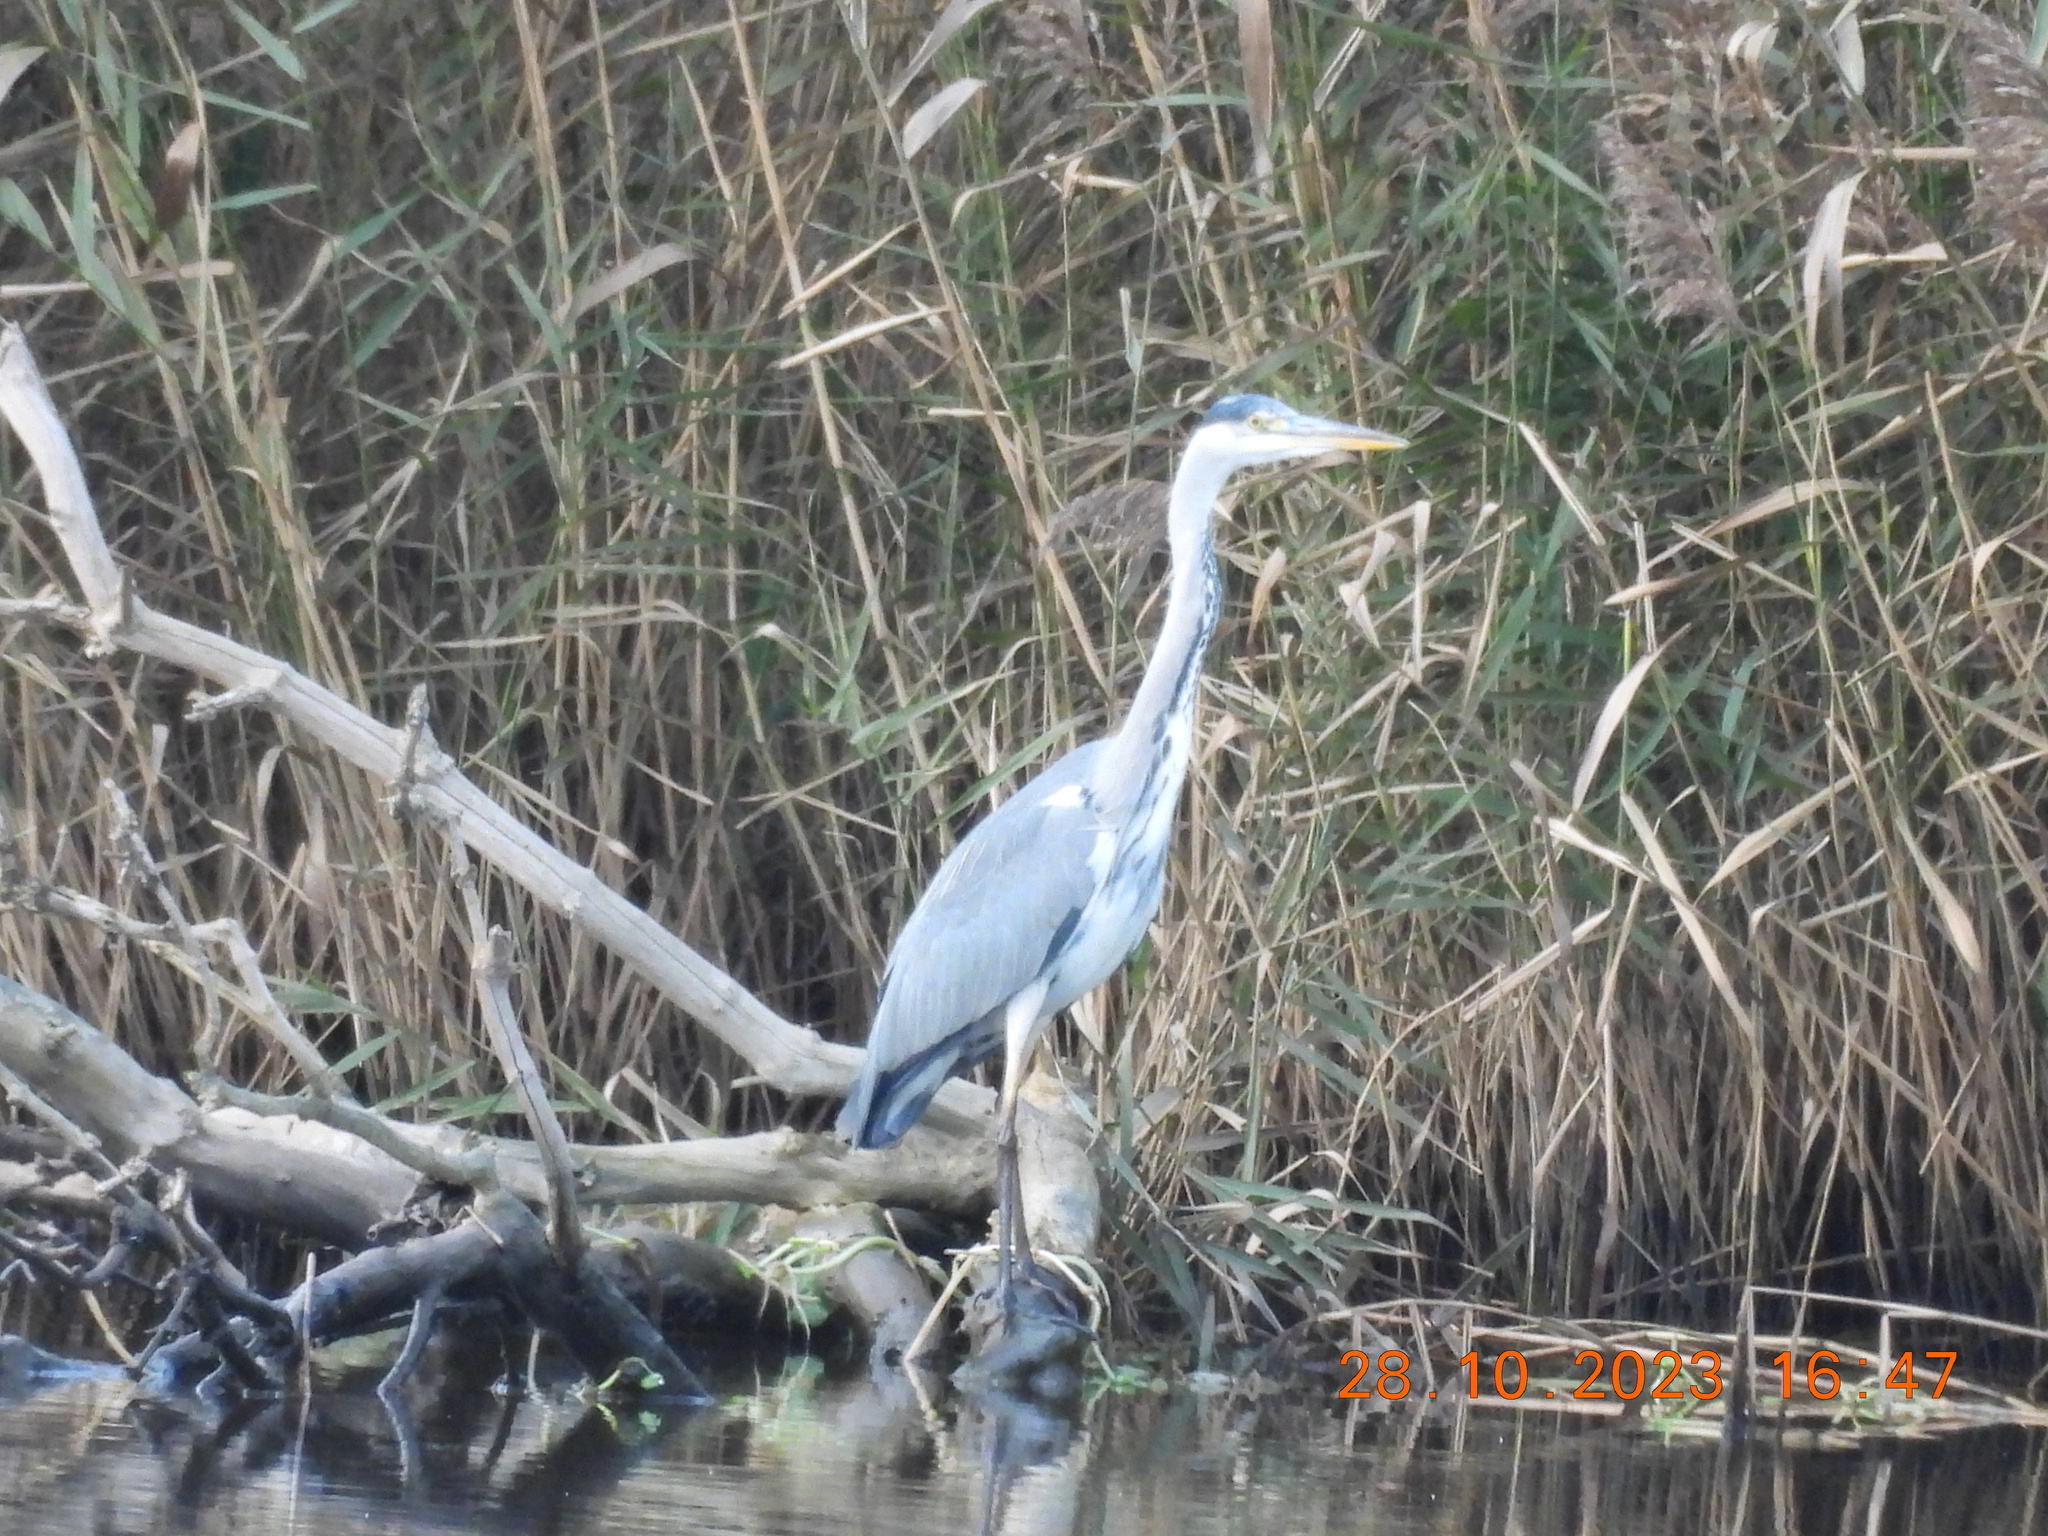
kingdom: Animalia
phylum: Chordata
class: Aves
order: Pelecaniformes
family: Ardeidae
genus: Ardea
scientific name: Ardea cinerea
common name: Grey heron
